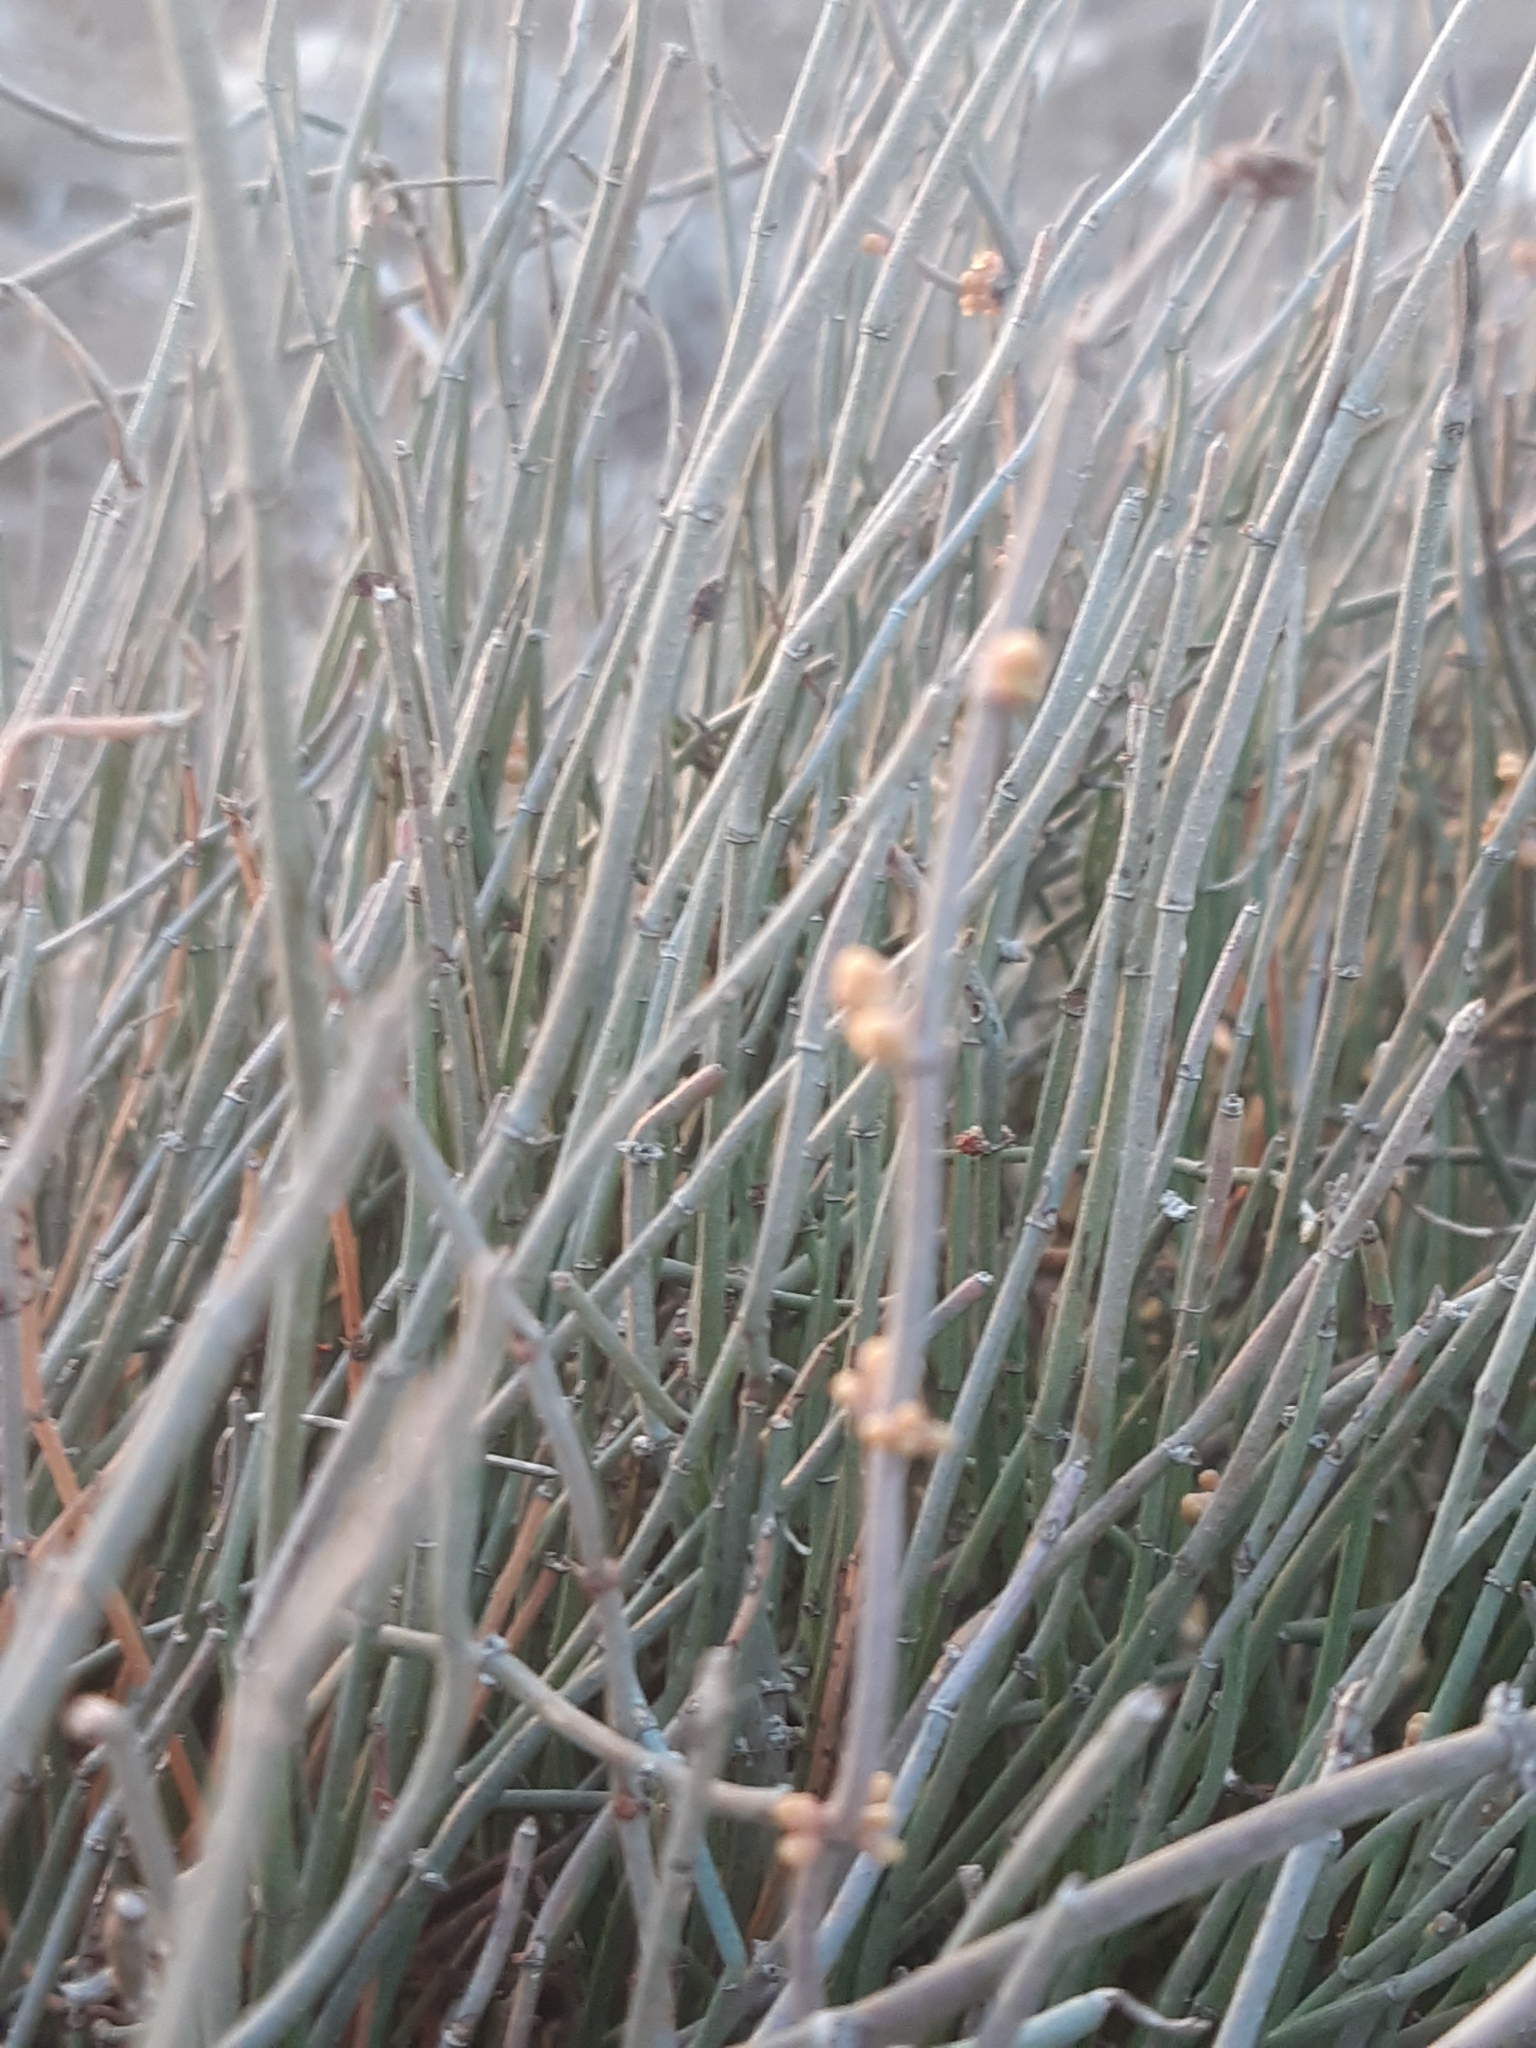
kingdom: Plantae
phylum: Tracheophyta
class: Gnetopsida
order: Ephedrales
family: Ephedraceae
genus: Ephedra
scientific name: Ephedra foeminea
